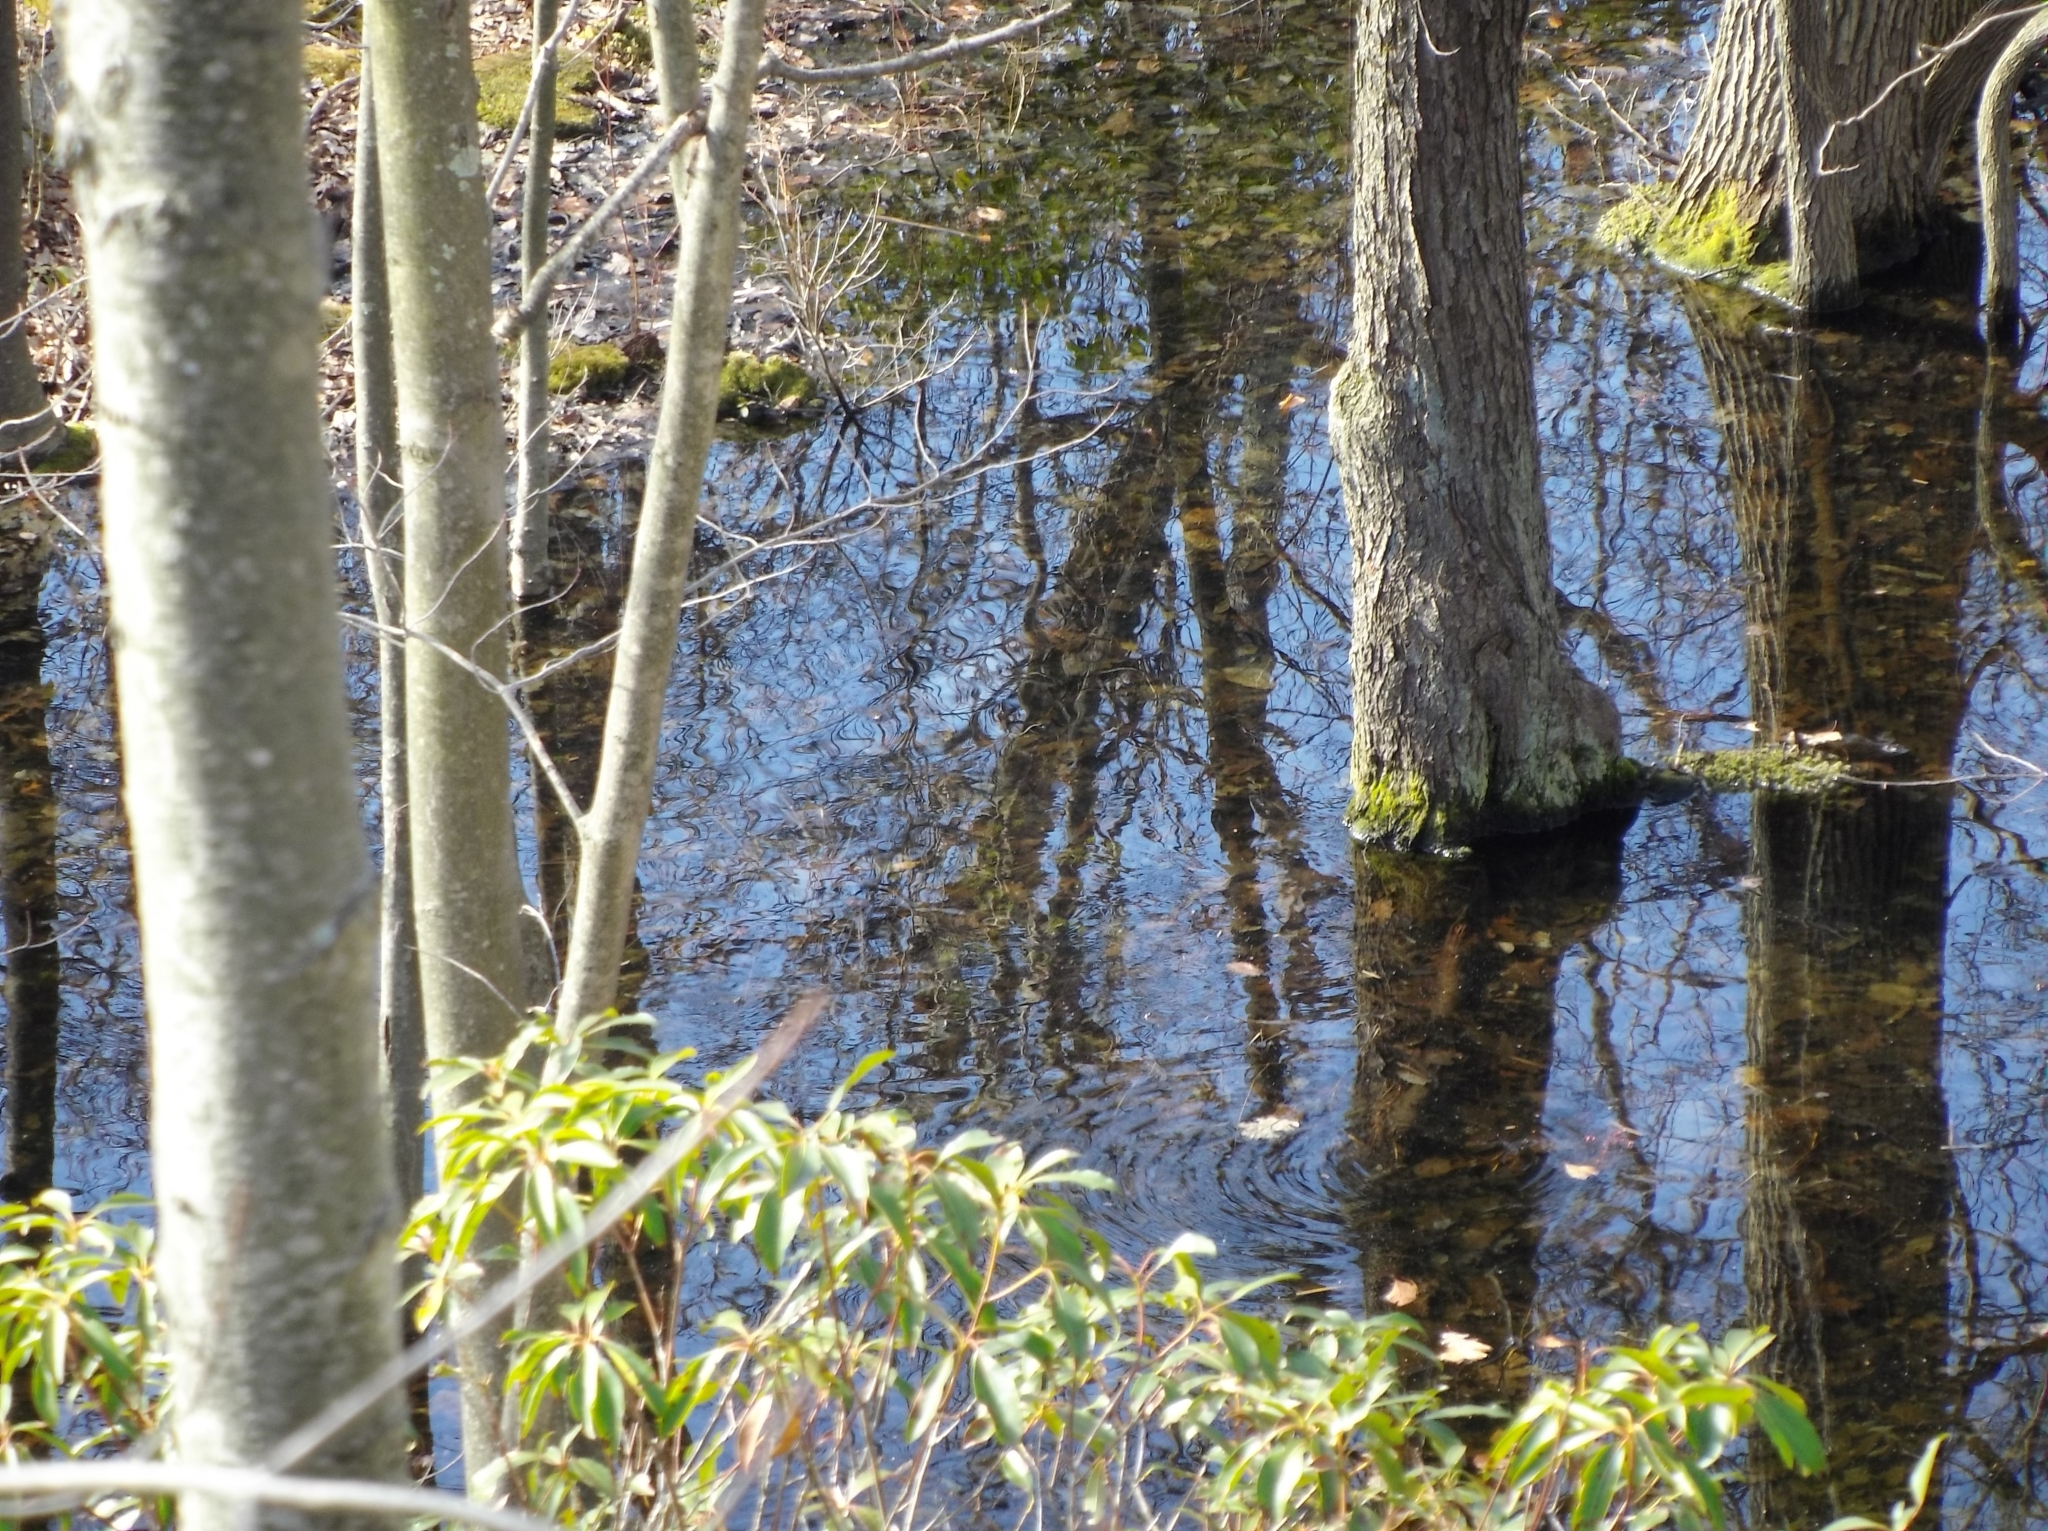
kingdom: Animalia
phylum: Chordata
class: Amphibia
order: Anura
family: Ranidae
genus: Lithobates
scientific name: Lithobates sylvaticus
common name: Wood frog
